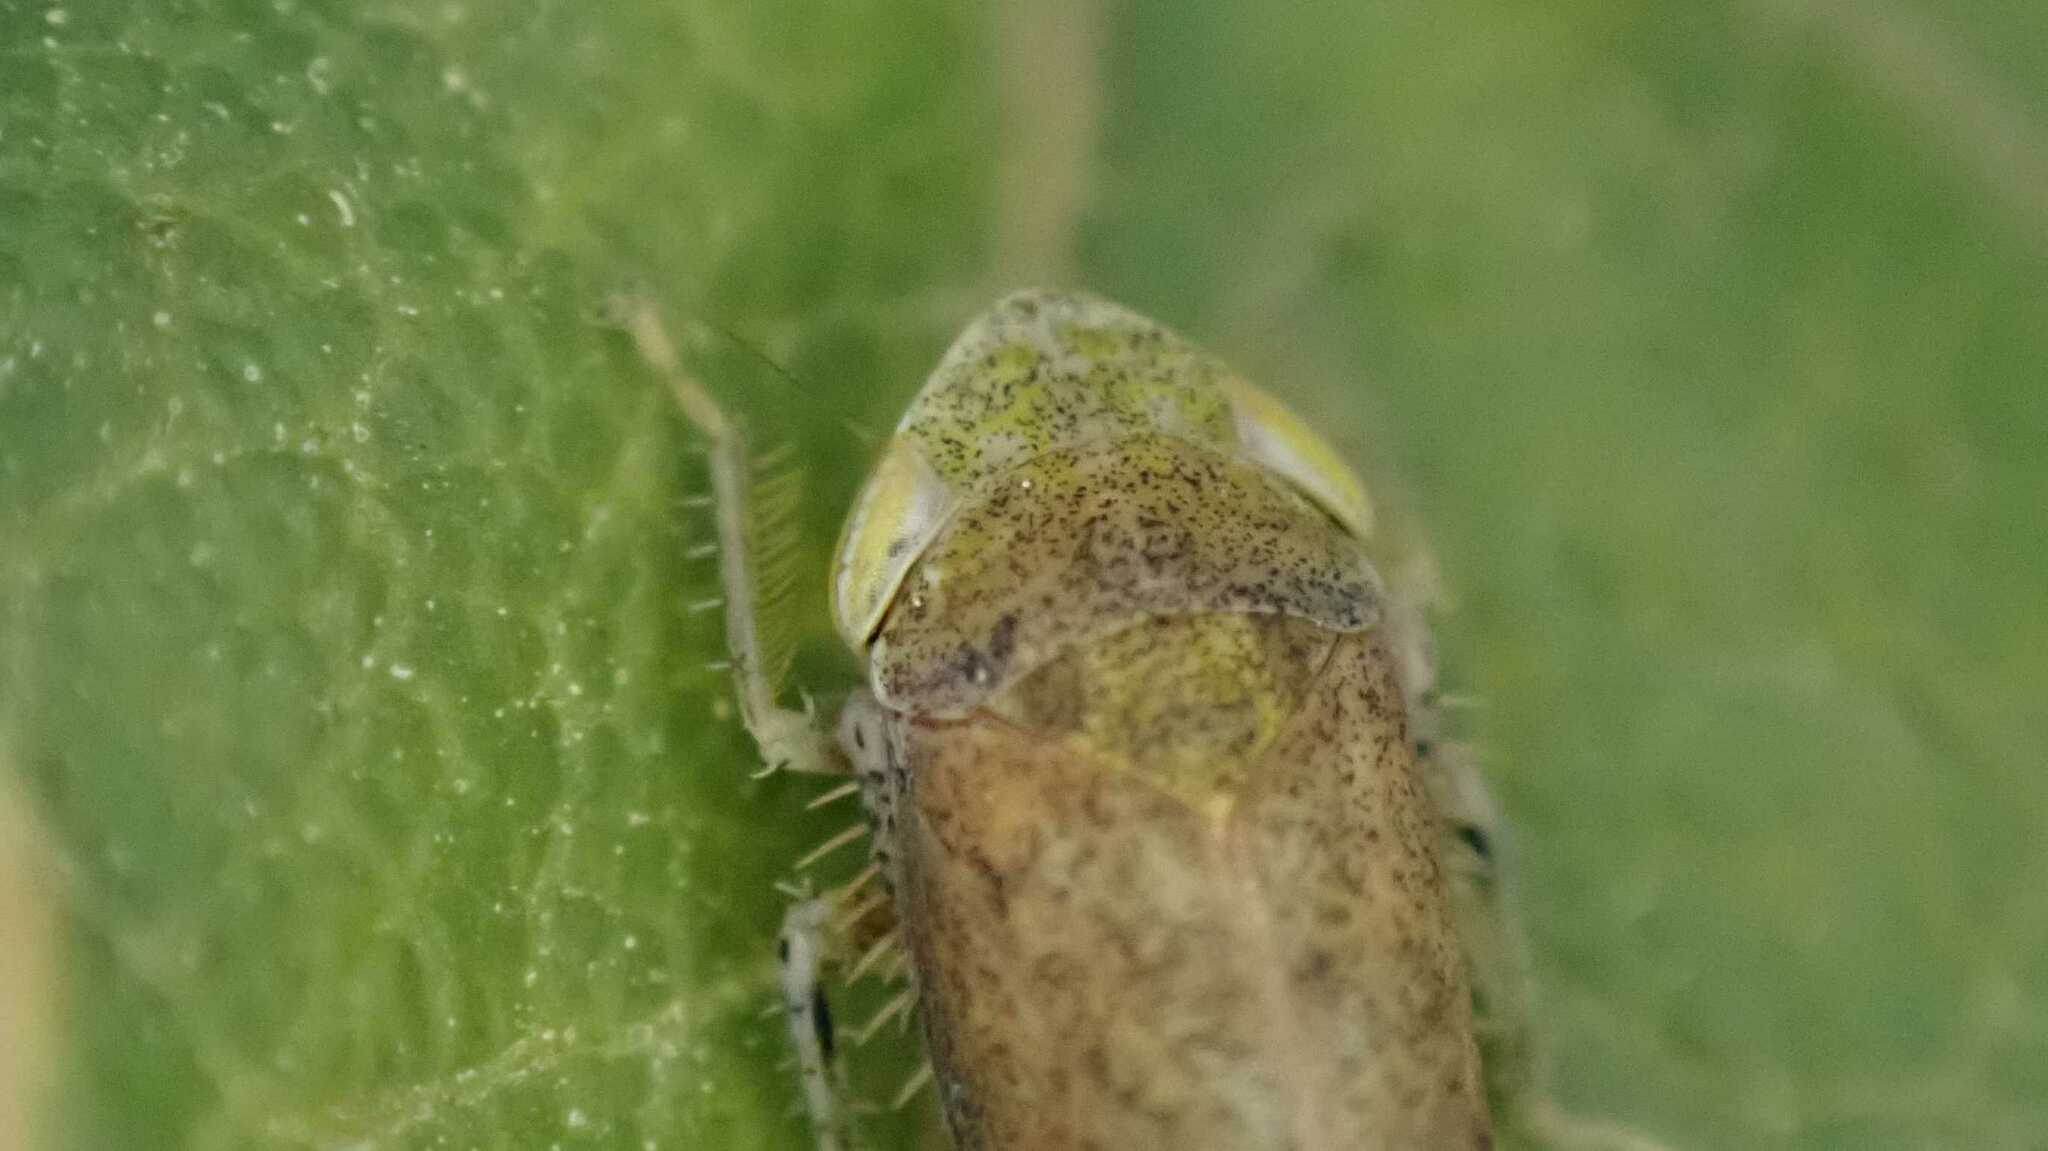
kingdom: Animalia
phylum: Arthropoda
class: Insecta
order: Hemiptera
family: Cicadellidae
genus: Fieberiella
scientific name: Fieberiella
